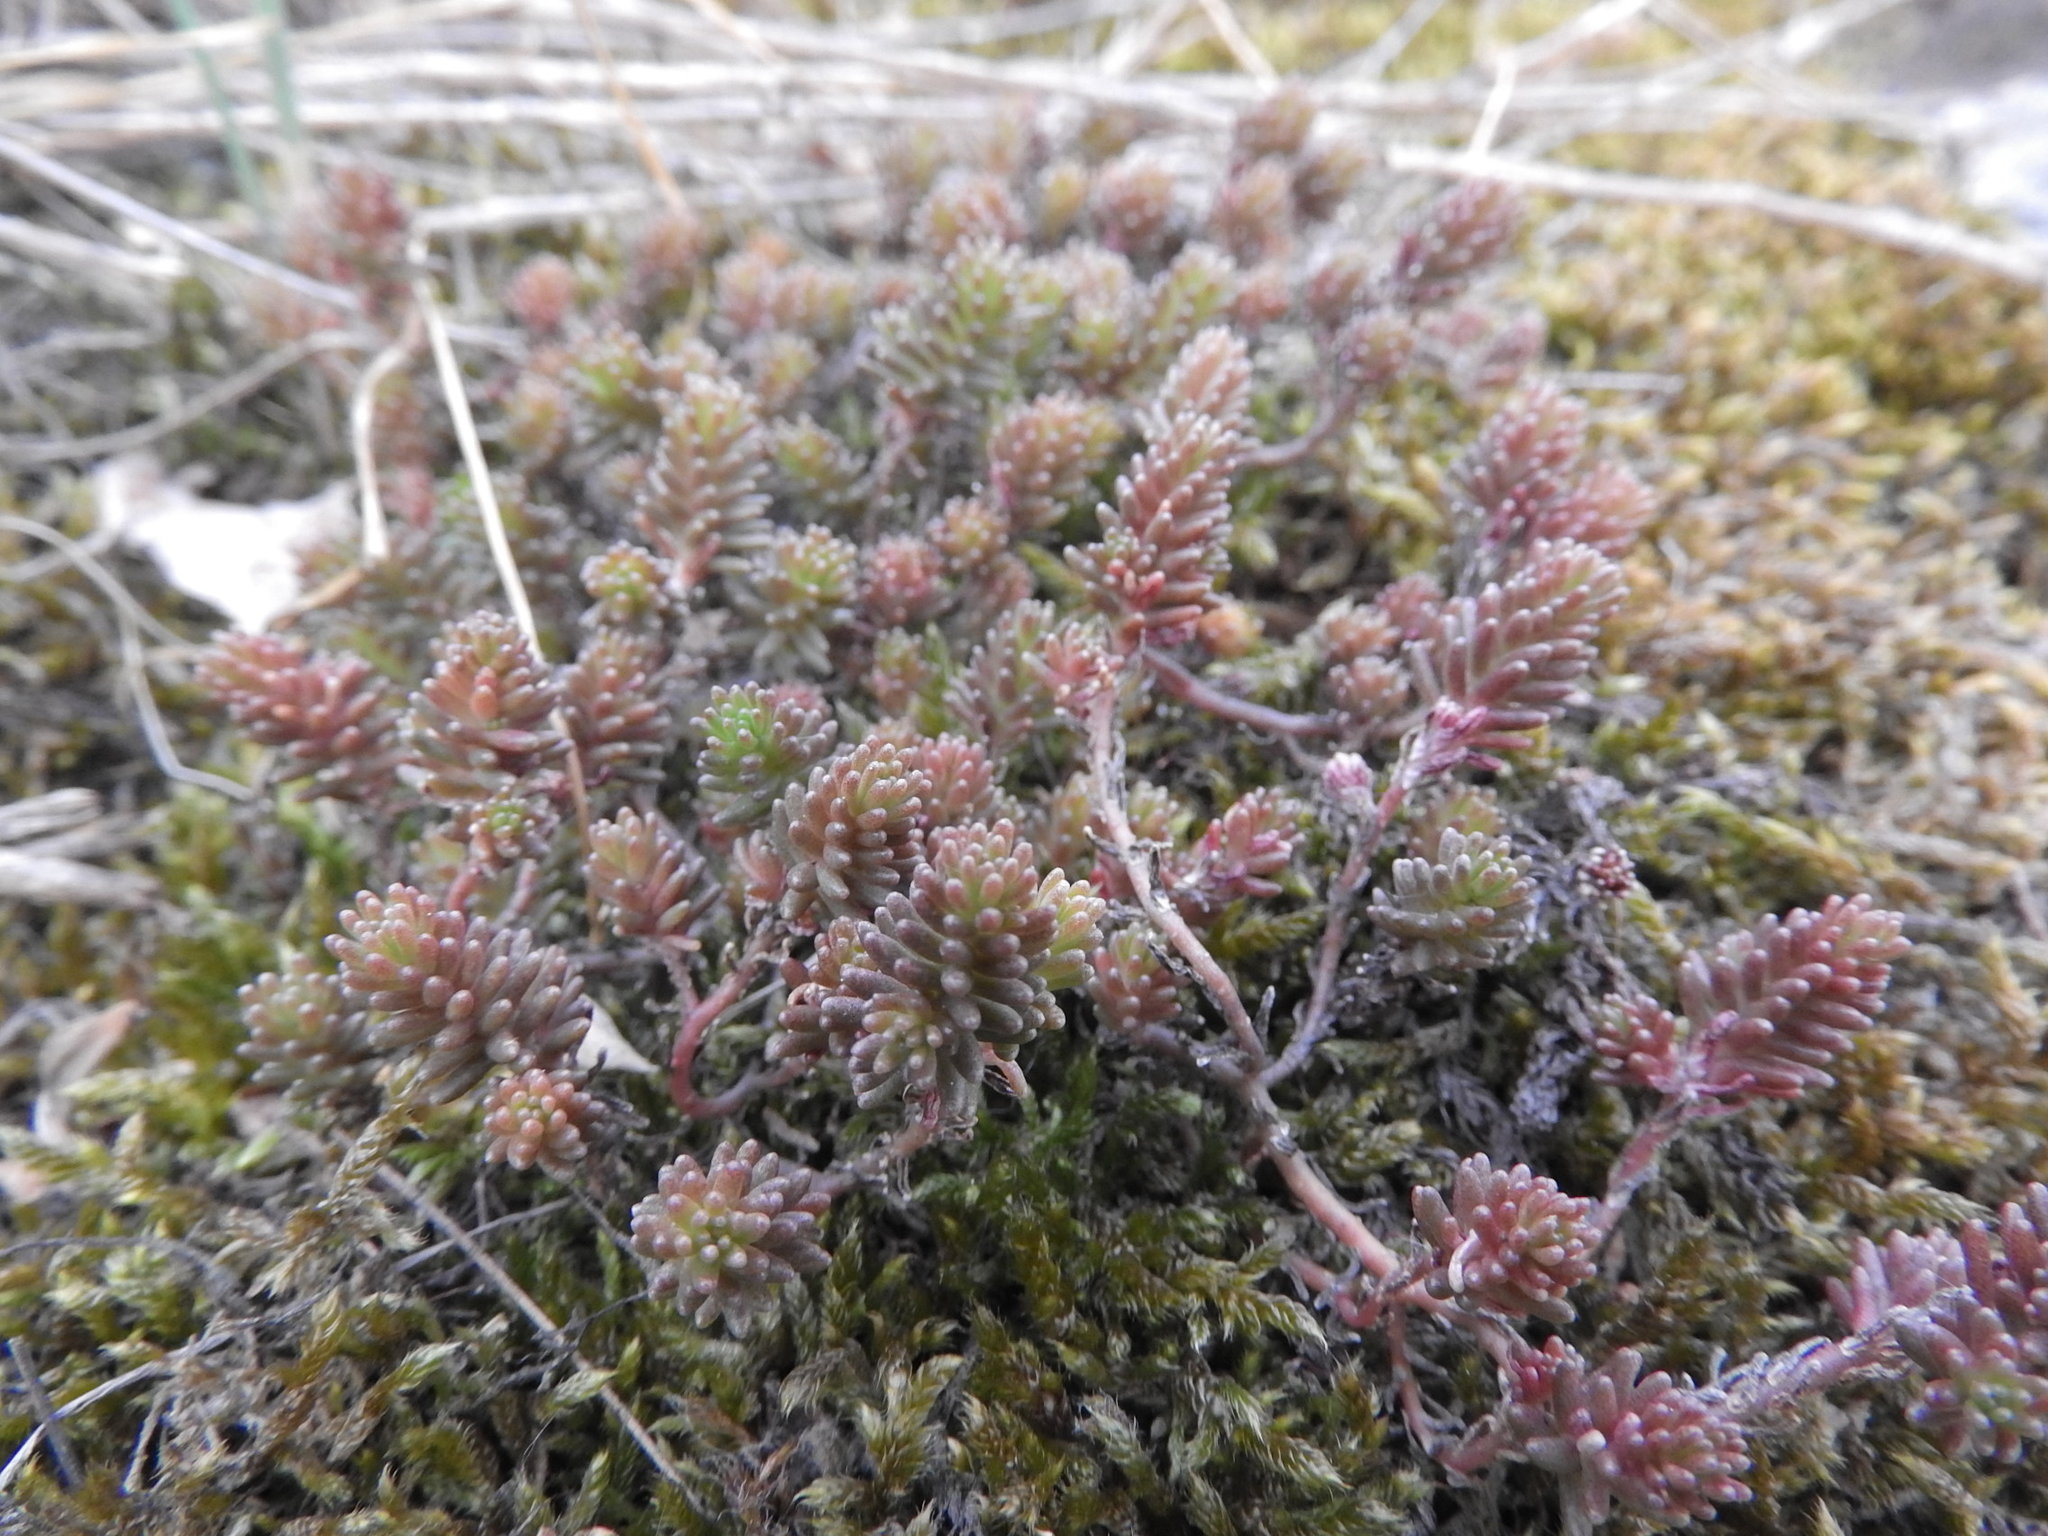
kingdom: Plantae
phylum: Tracheophyta
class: Magnoliopsida
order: Saxifragales
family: Crassulaceae
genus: Sedum
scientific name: Sedum sexangulare
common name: Tasteless stonecrop
